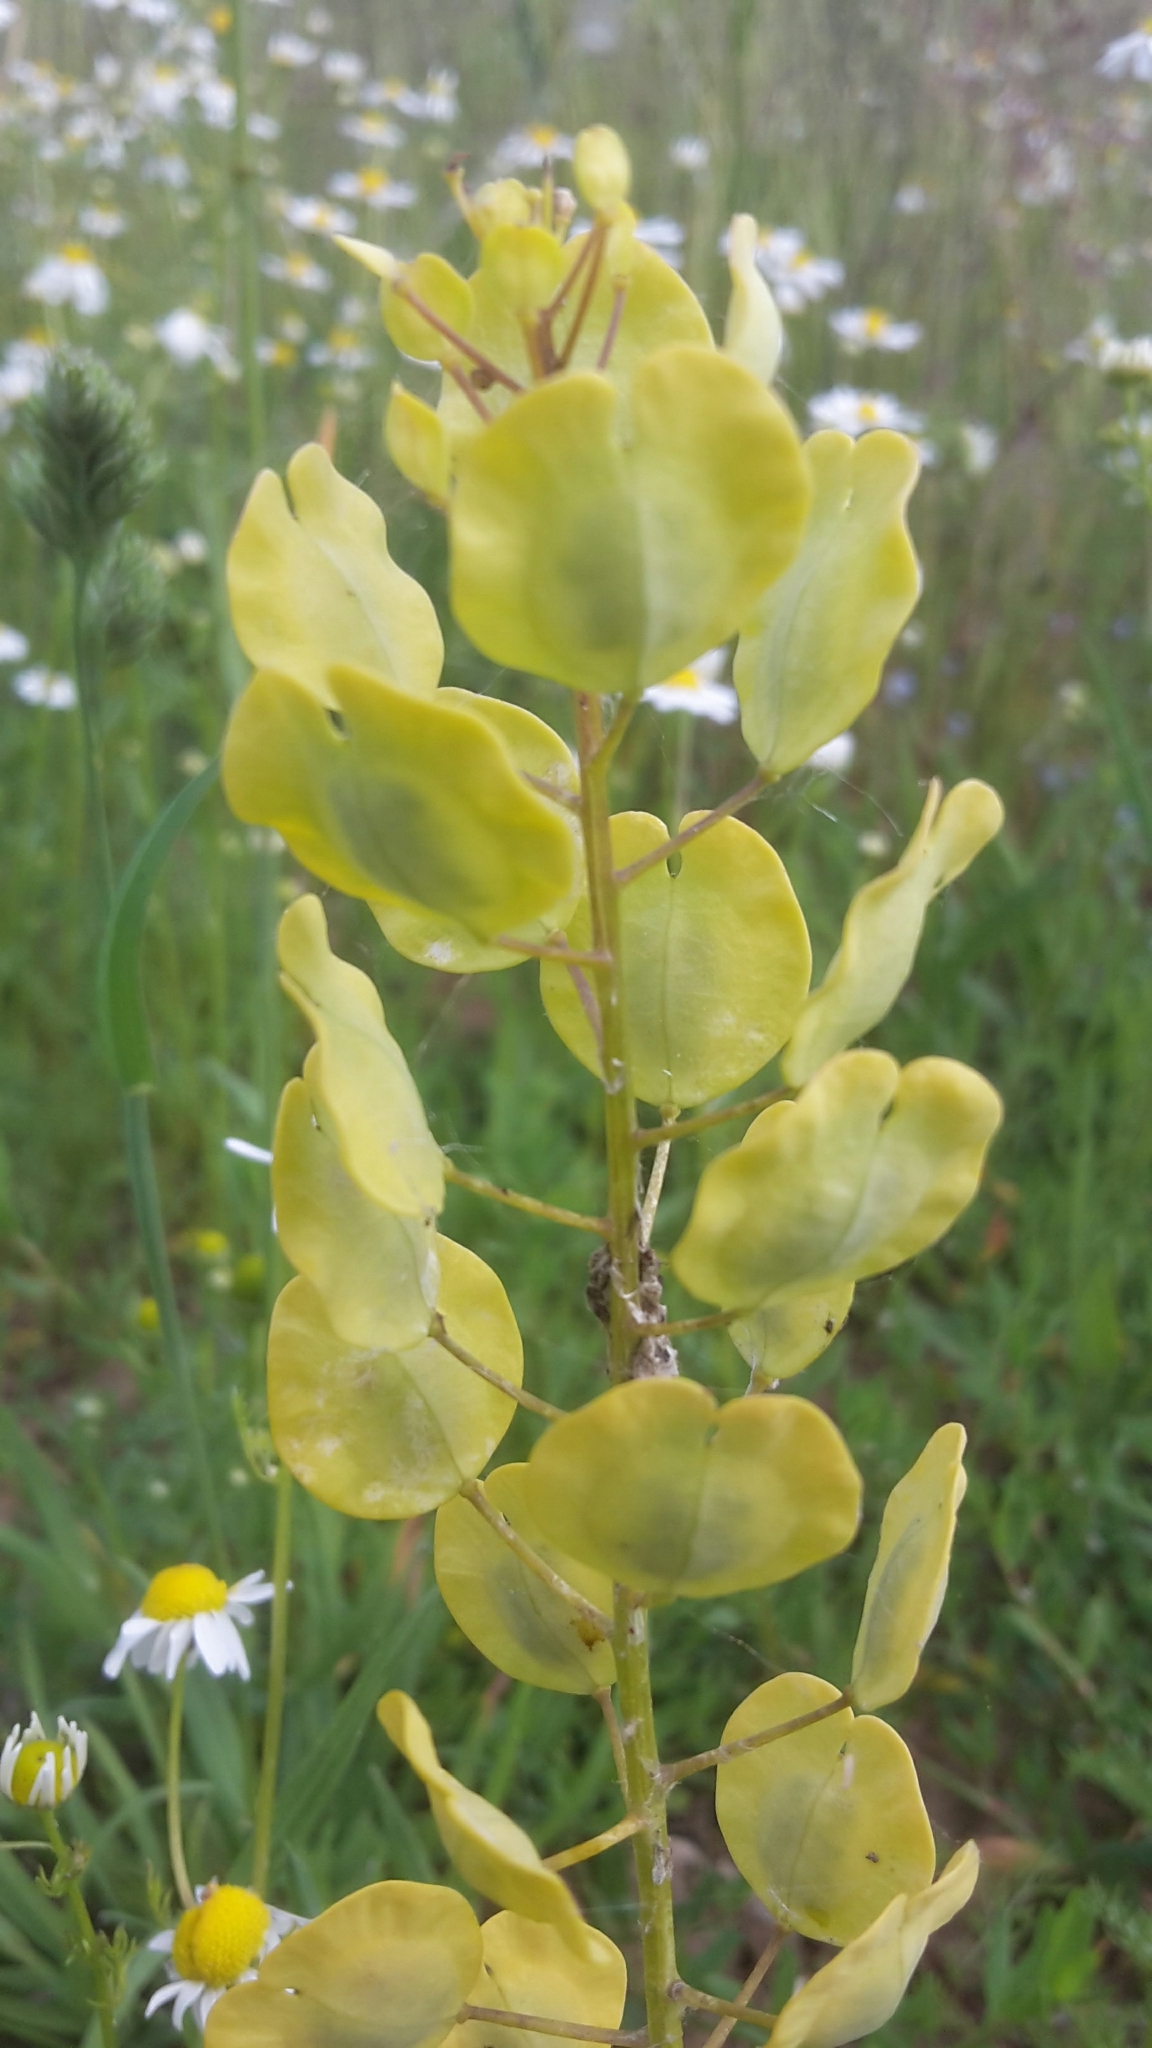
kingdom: Plantae
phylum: Tracheophyta
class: Magnoliopsida
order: Brassicales
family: Brassicaceae
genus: Thlaspi
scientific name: Thlaspi arvense
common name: Field pennycress
